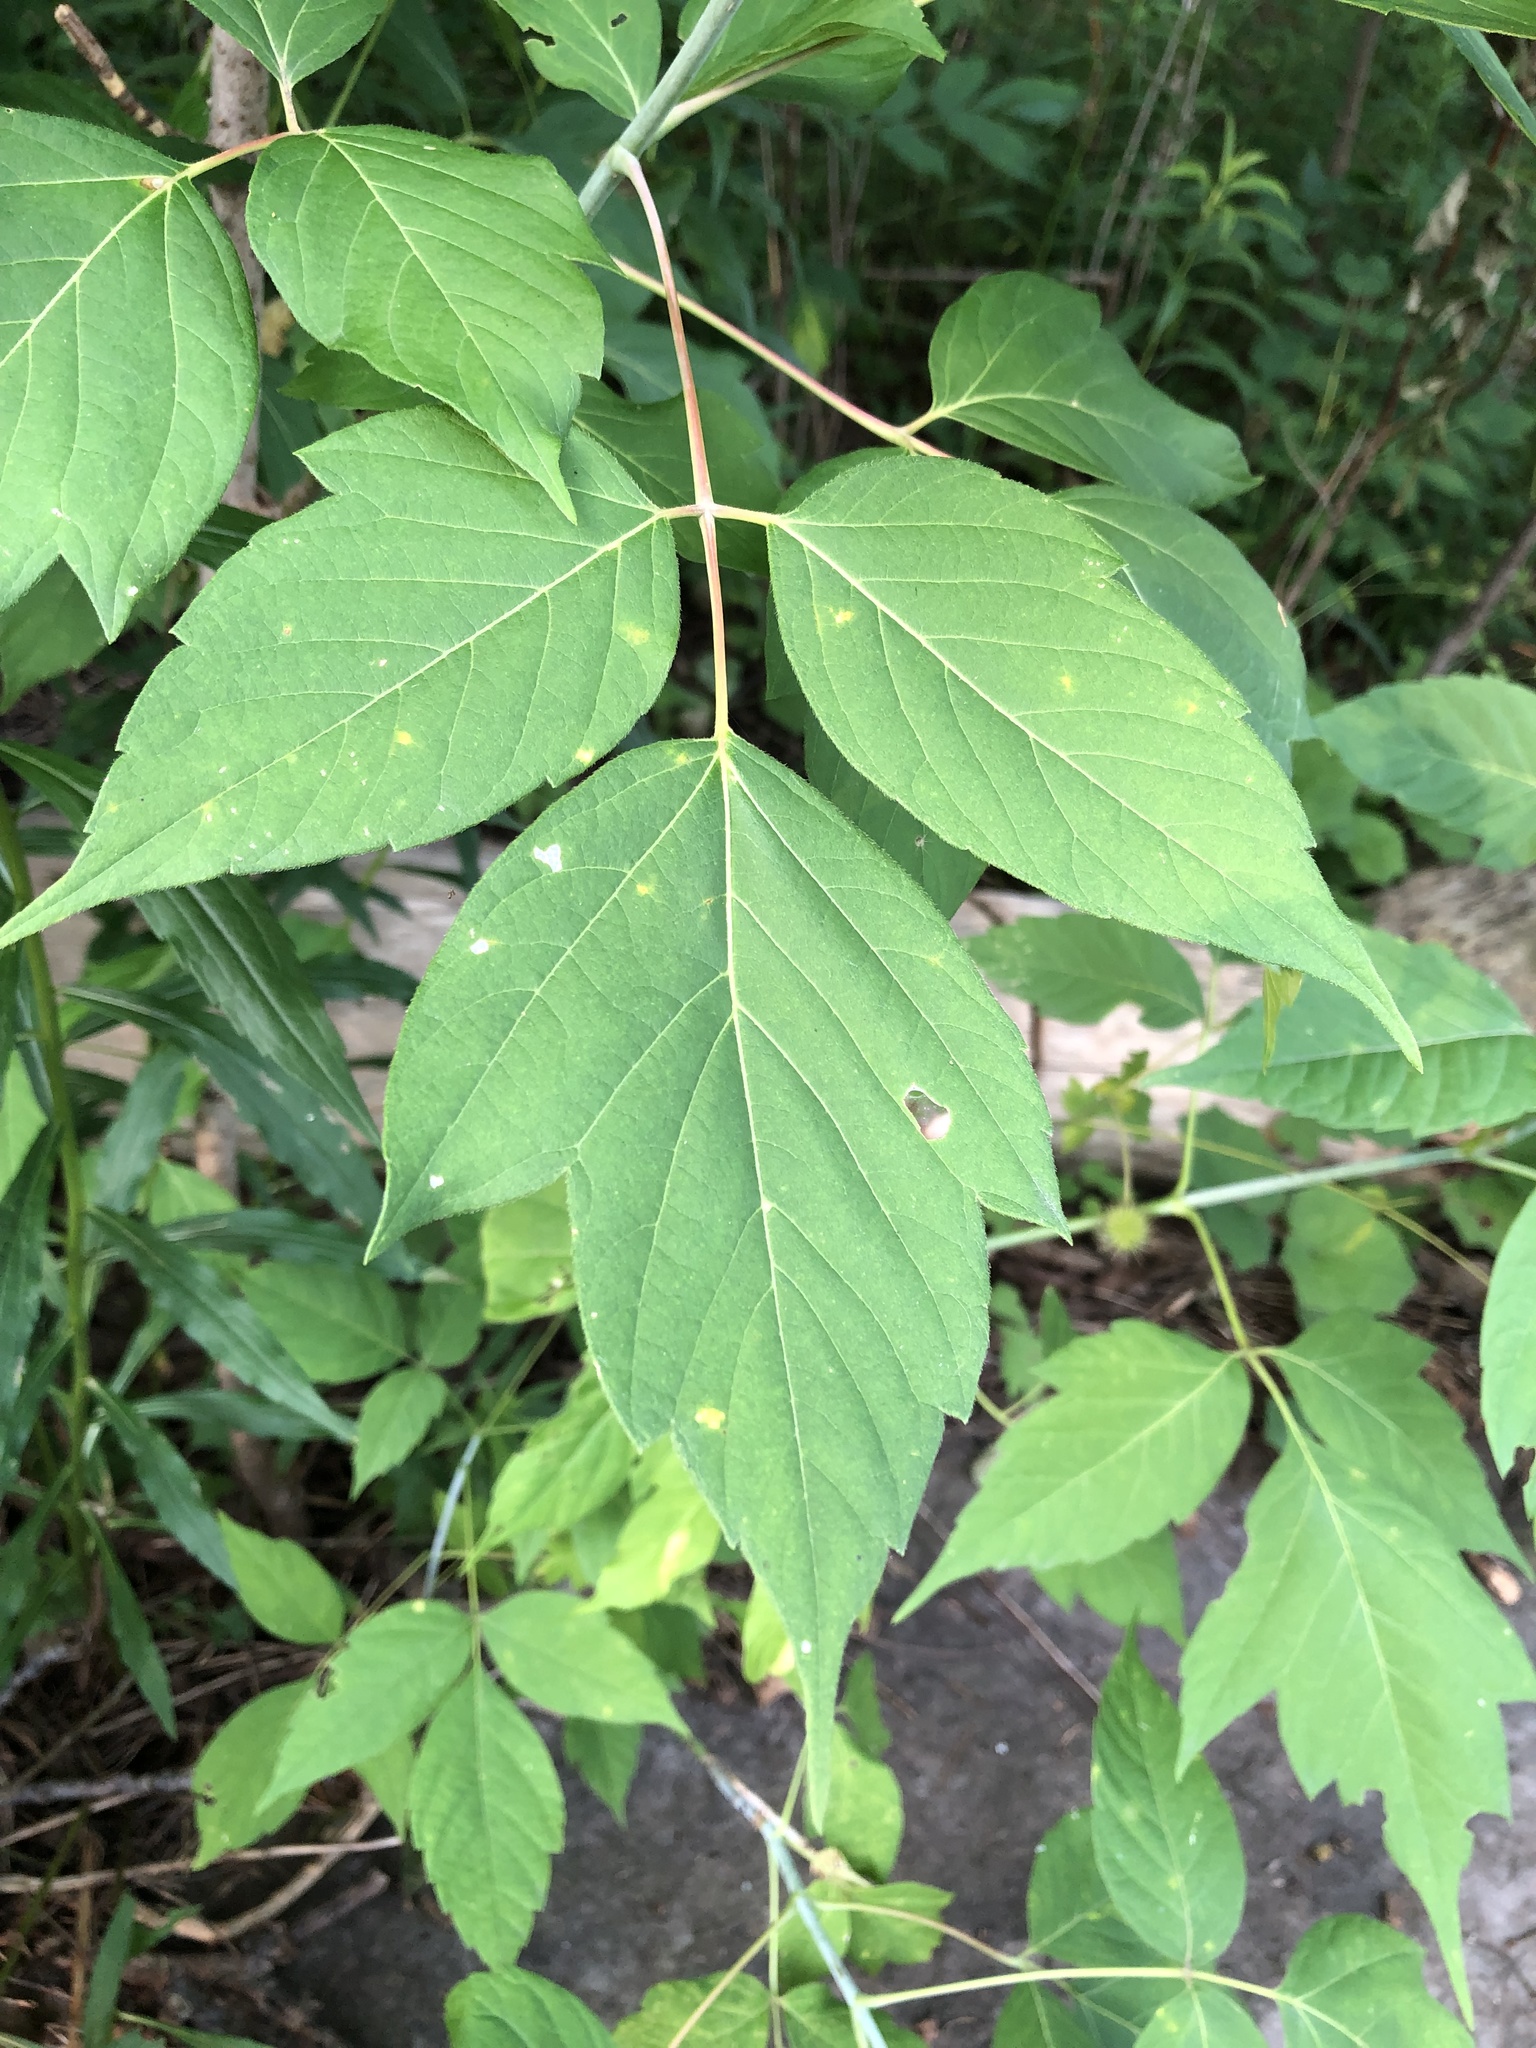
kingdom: Plantae
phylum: Tracheophyta
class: Magnoliopsida
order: Sapindales
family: Sapindaceae
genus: Acer
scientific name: Acer negundo
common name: Ashleaf maple
